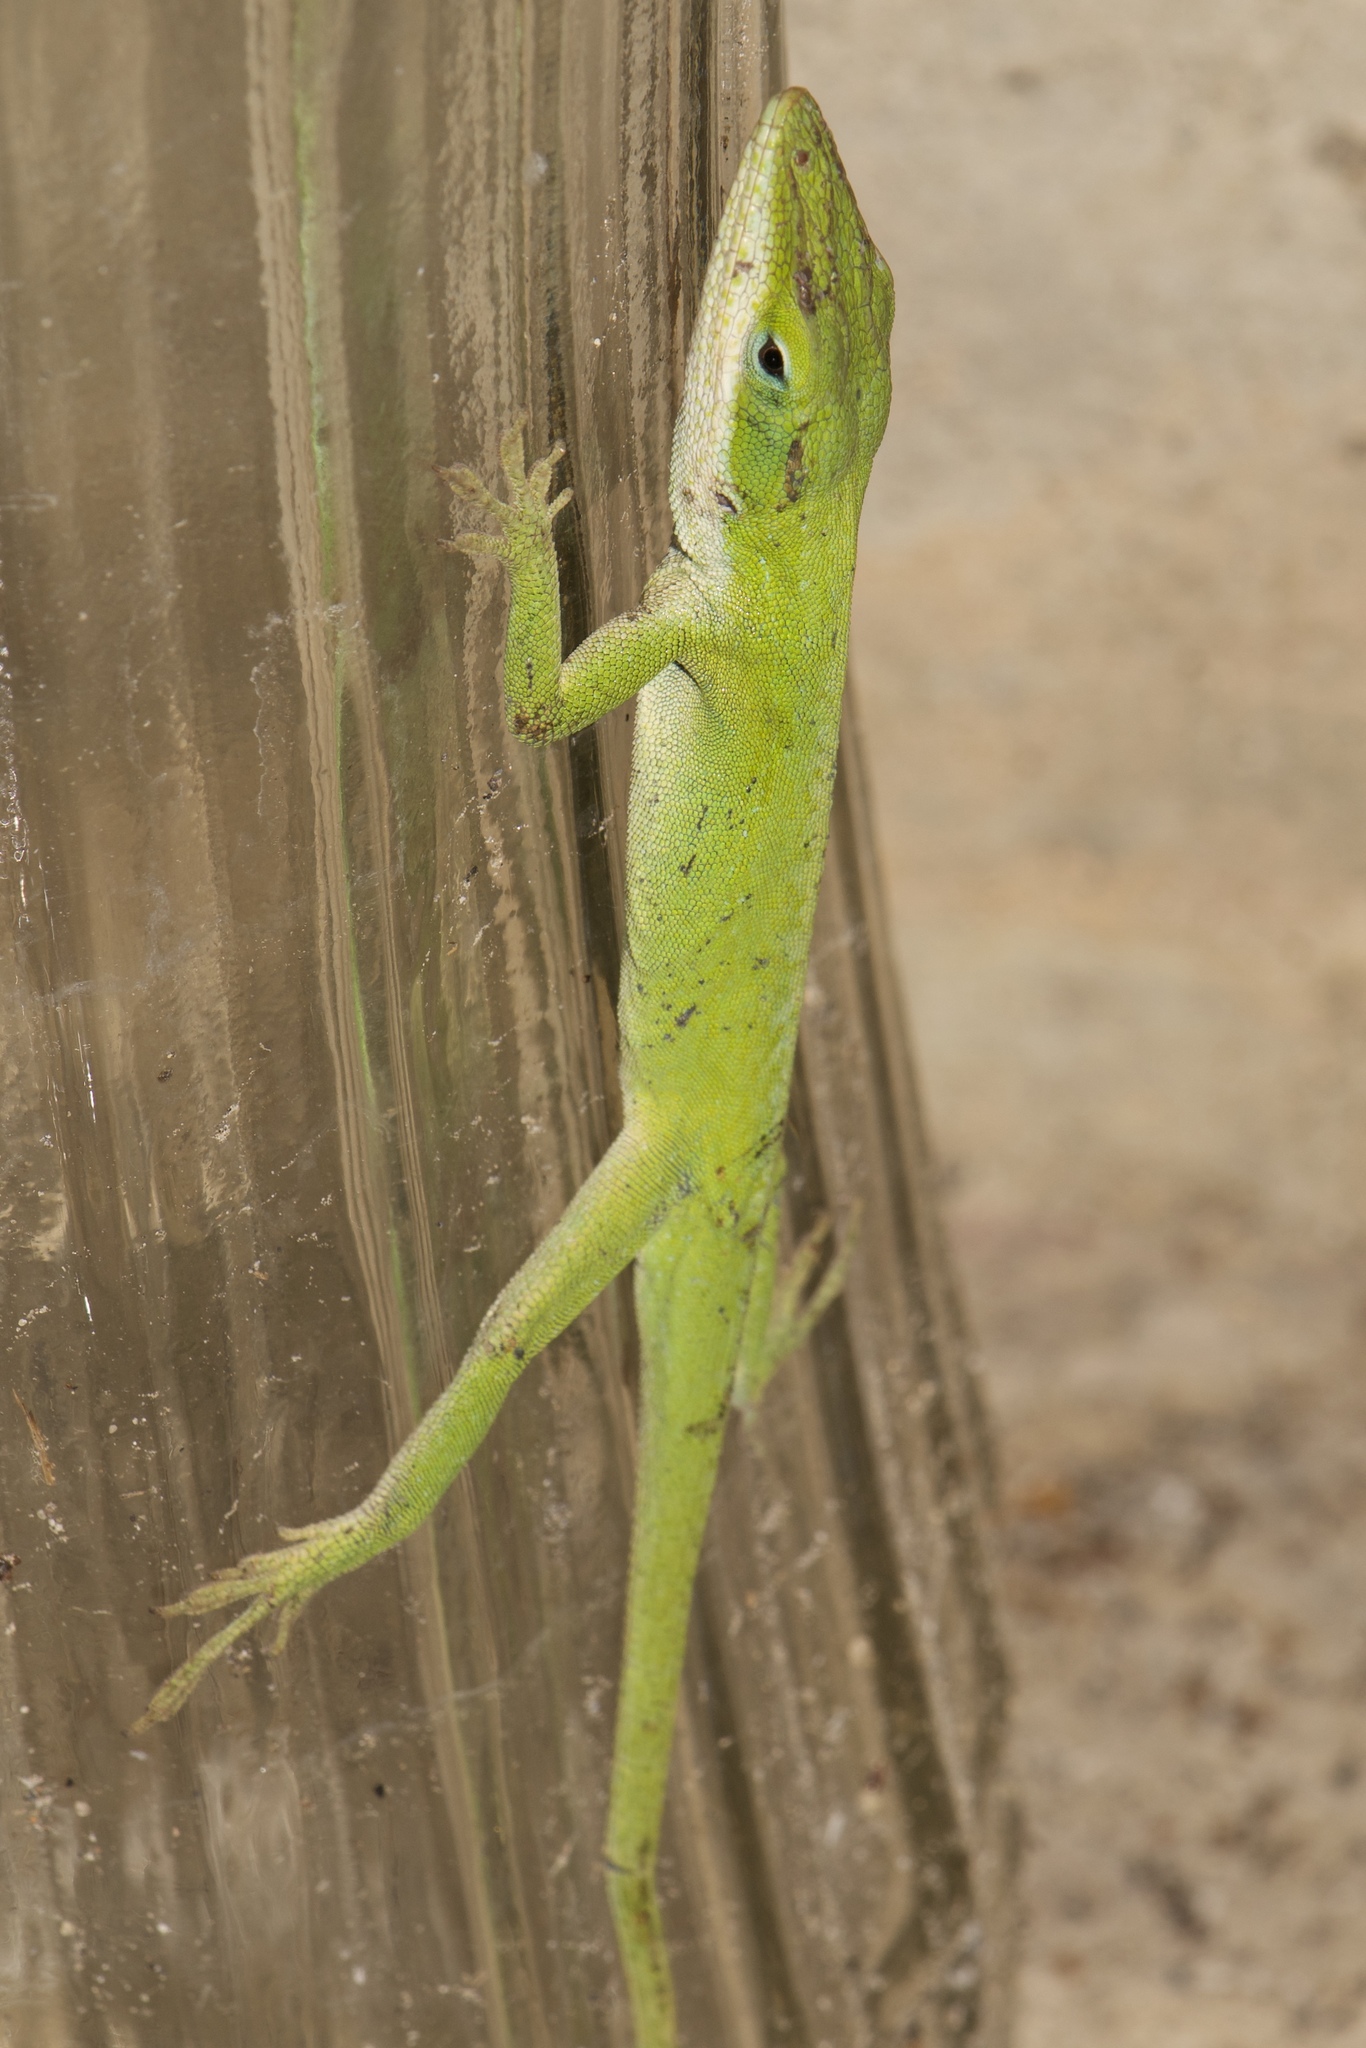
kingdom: Animalia
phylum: Chordata
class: Squamata
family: Dactyloidae
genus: Anolis
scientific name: Anolis carolinensis
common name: Green anole
